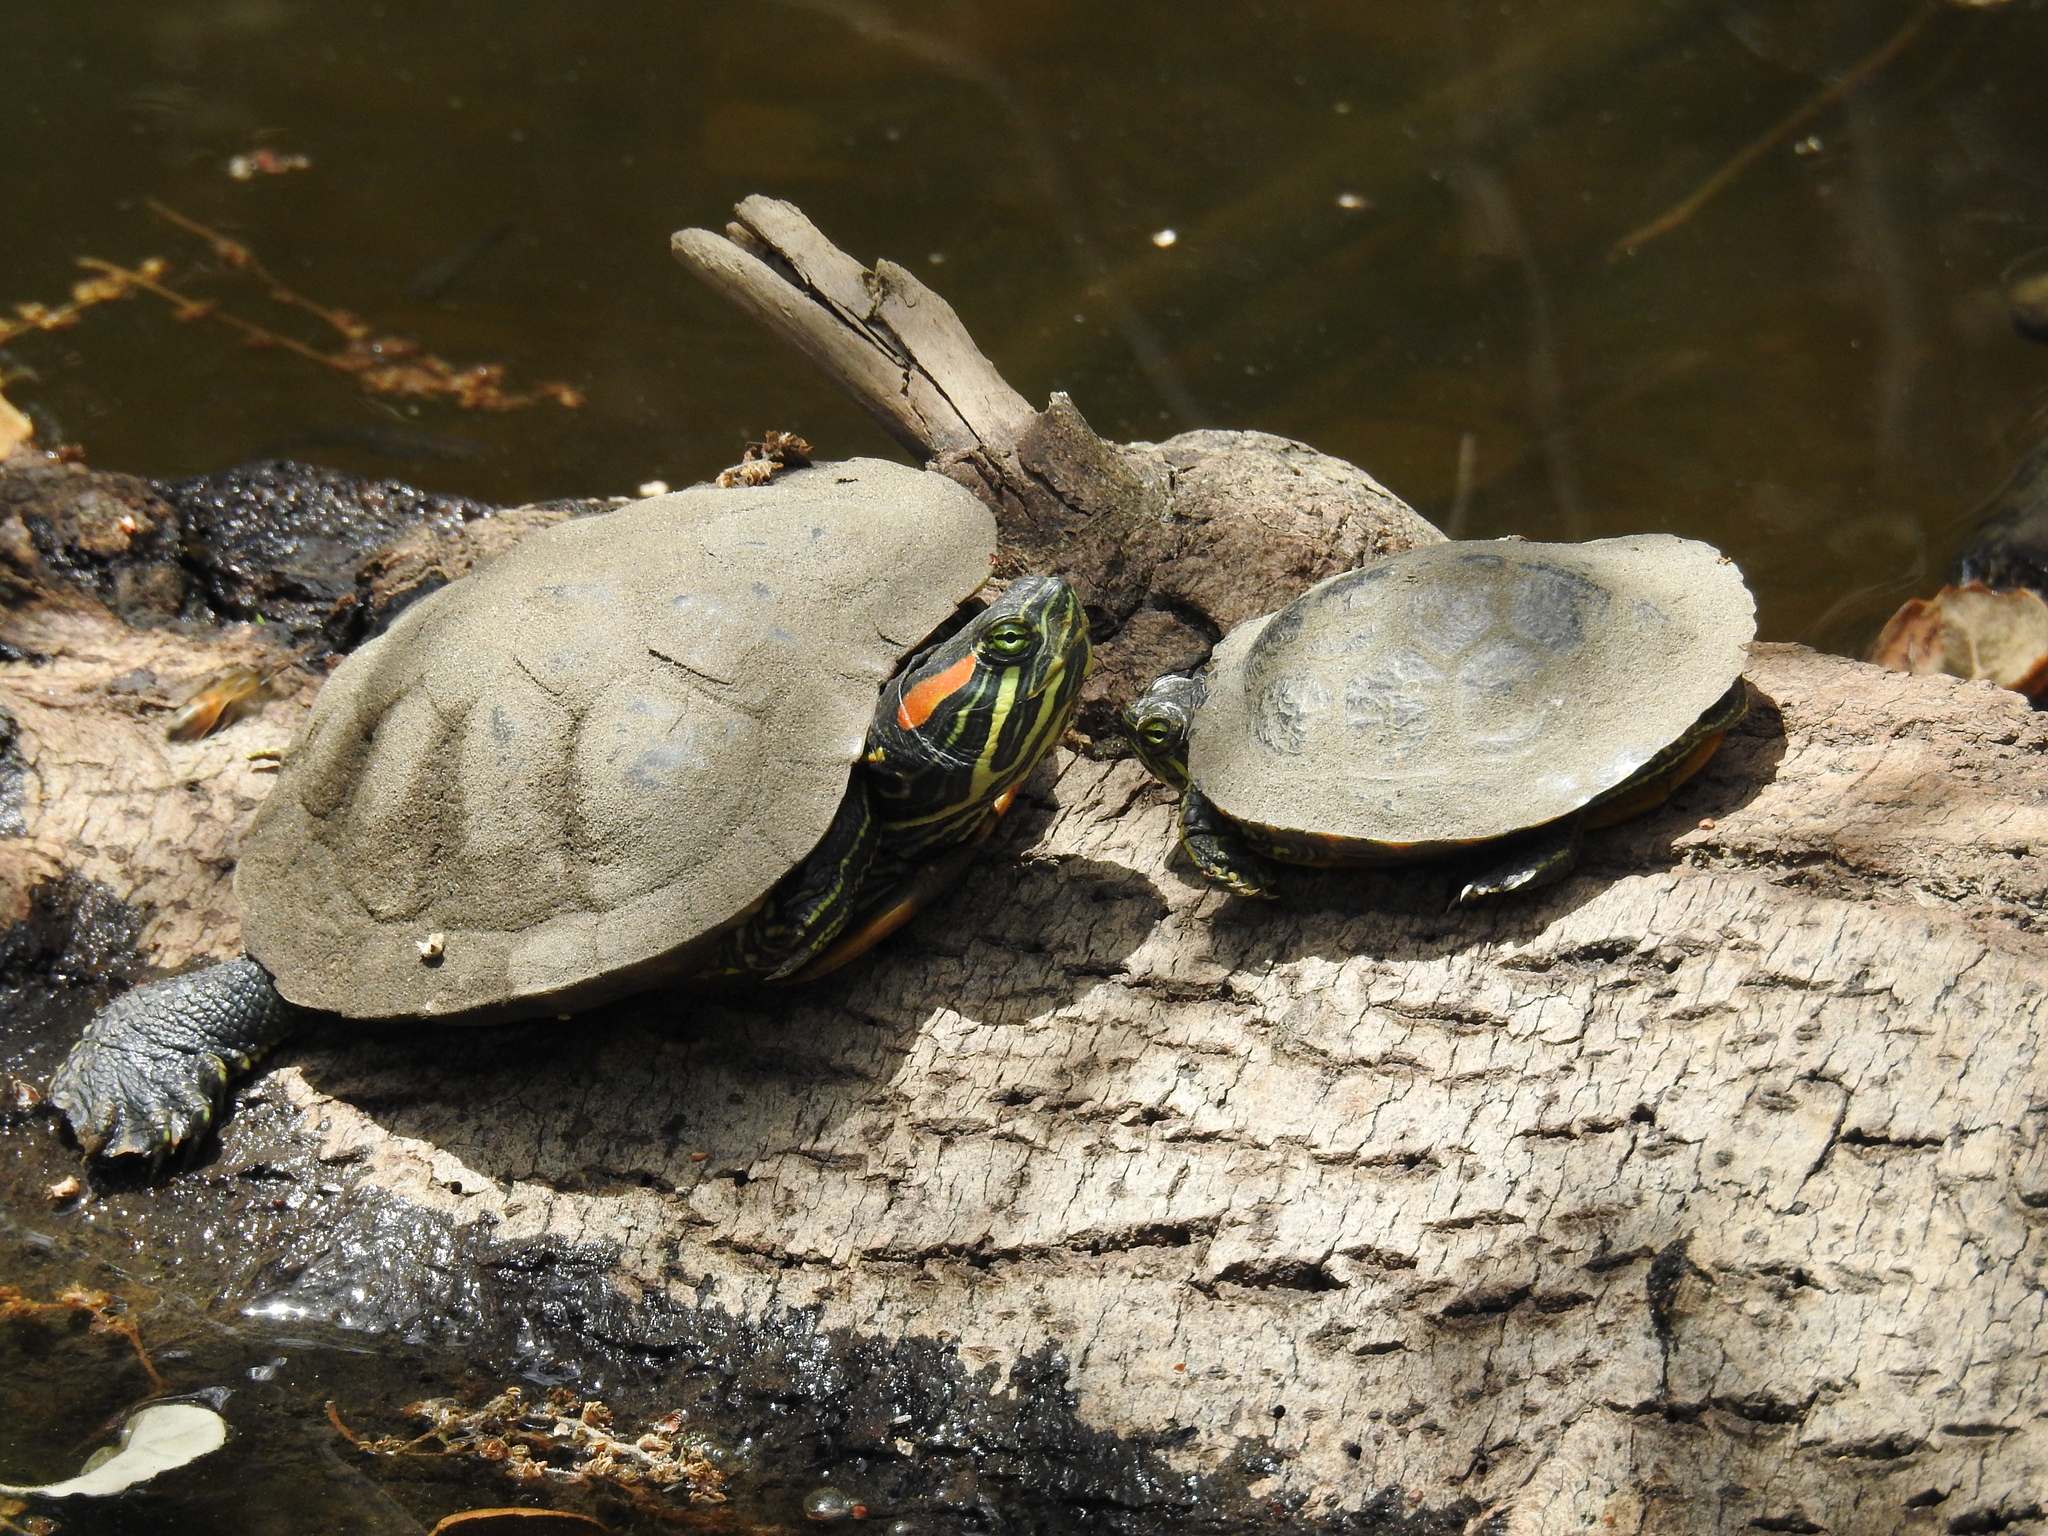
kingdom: Animalia
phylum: Chordata
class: Testudines
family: Emydidae
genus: Trachemys
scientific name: Trachemys scripta
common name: Slider
